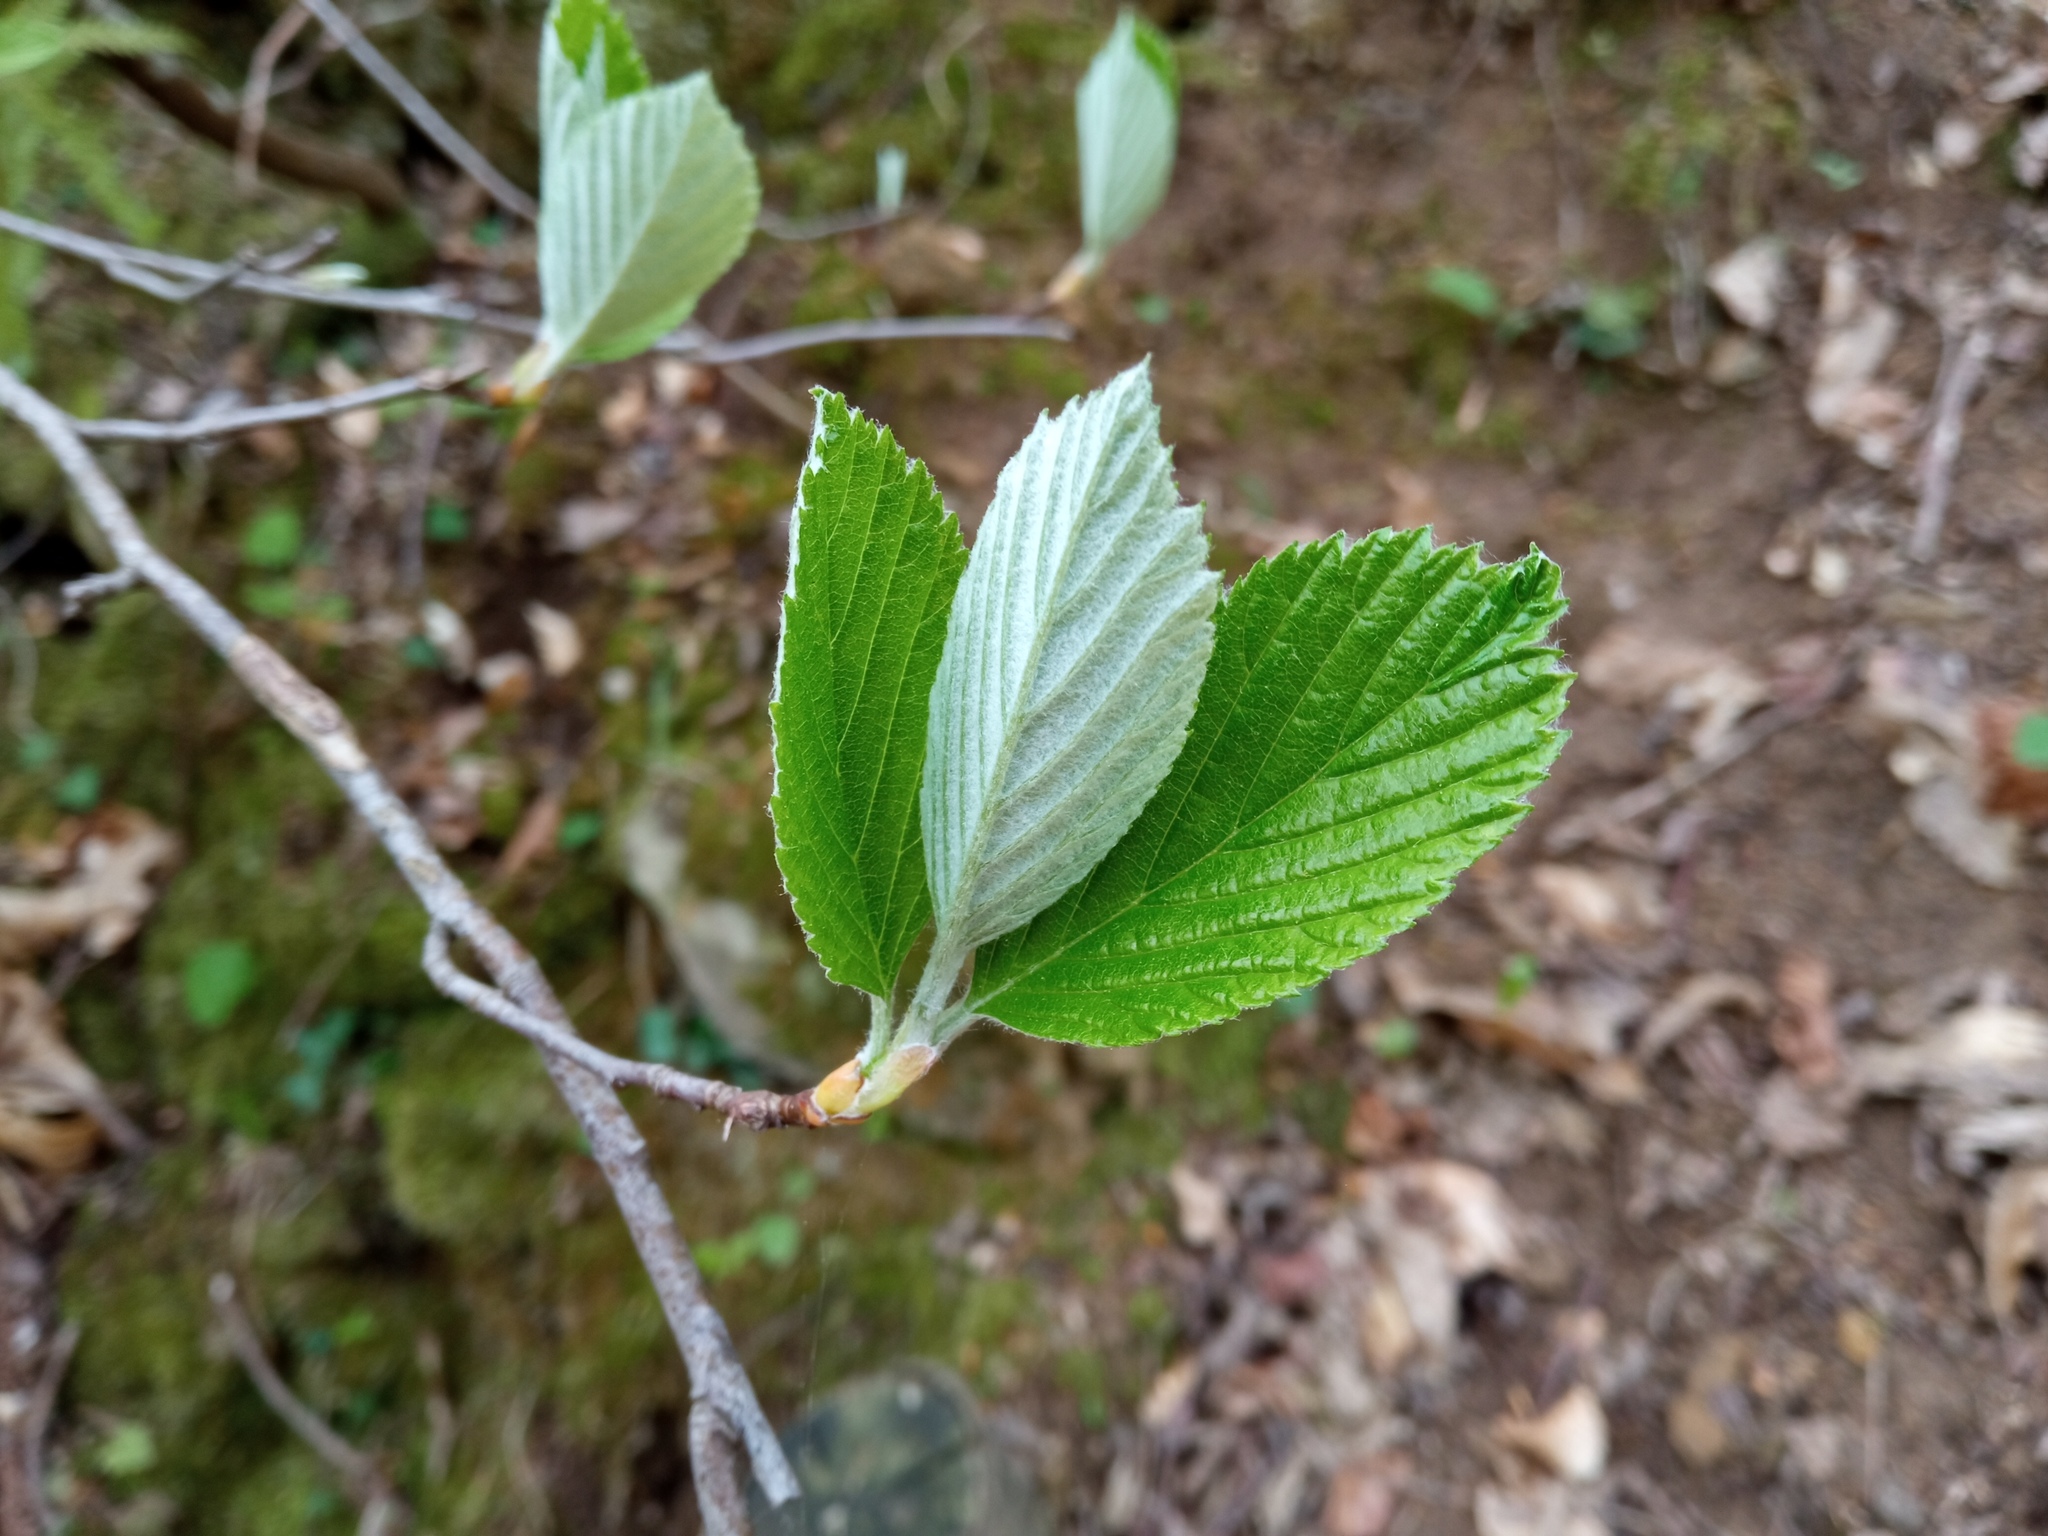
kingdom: Plantae
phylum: Tracheophyta
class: Magnoliopsida
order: Rosales
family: Rosaceae
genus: Aria
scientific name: Aria edulis
